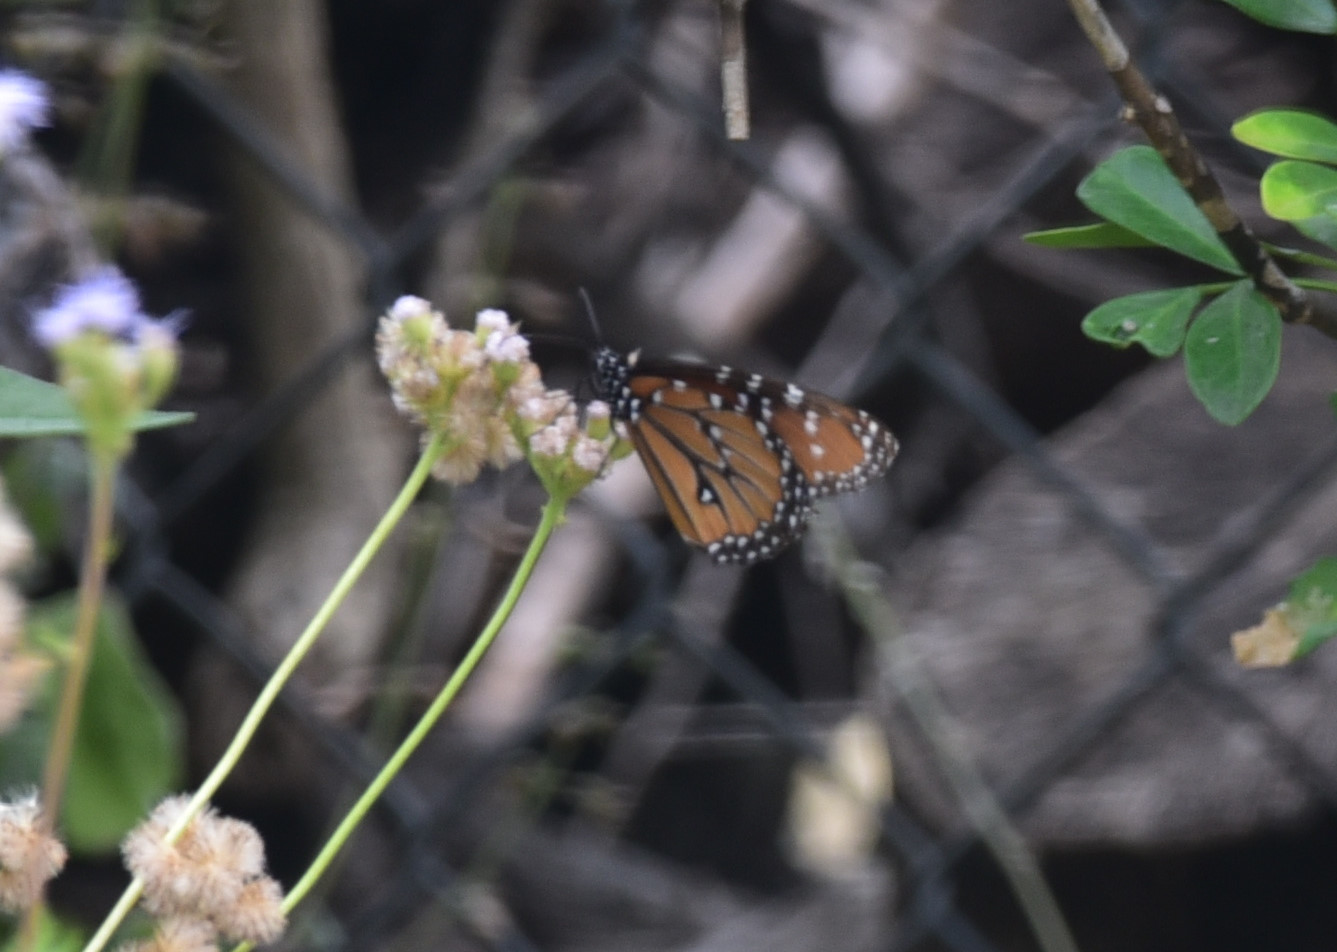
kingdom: Animalia
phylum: Arthropoda
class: Insecta
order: Lepidoptera
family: Nymphalidae
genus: Danaus
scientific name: Danaus gilippus
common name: Queen
